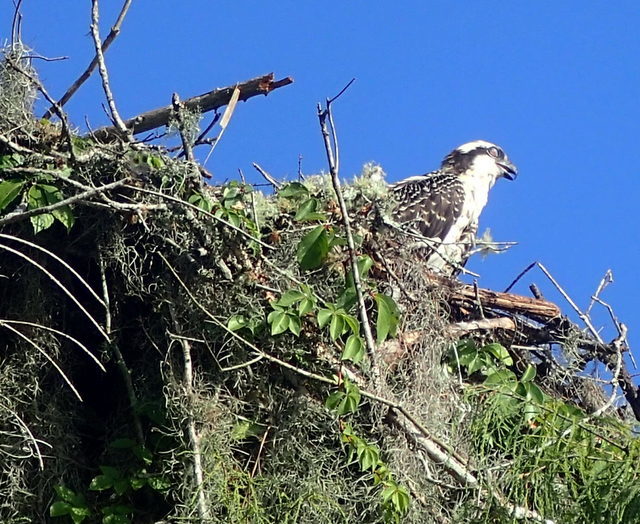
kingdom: Animalia
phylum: Chordata
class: Aves
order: Accipitriformes
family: Pandionidae
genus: Pandion
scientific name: Pandion haliaetus
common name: Osprey
